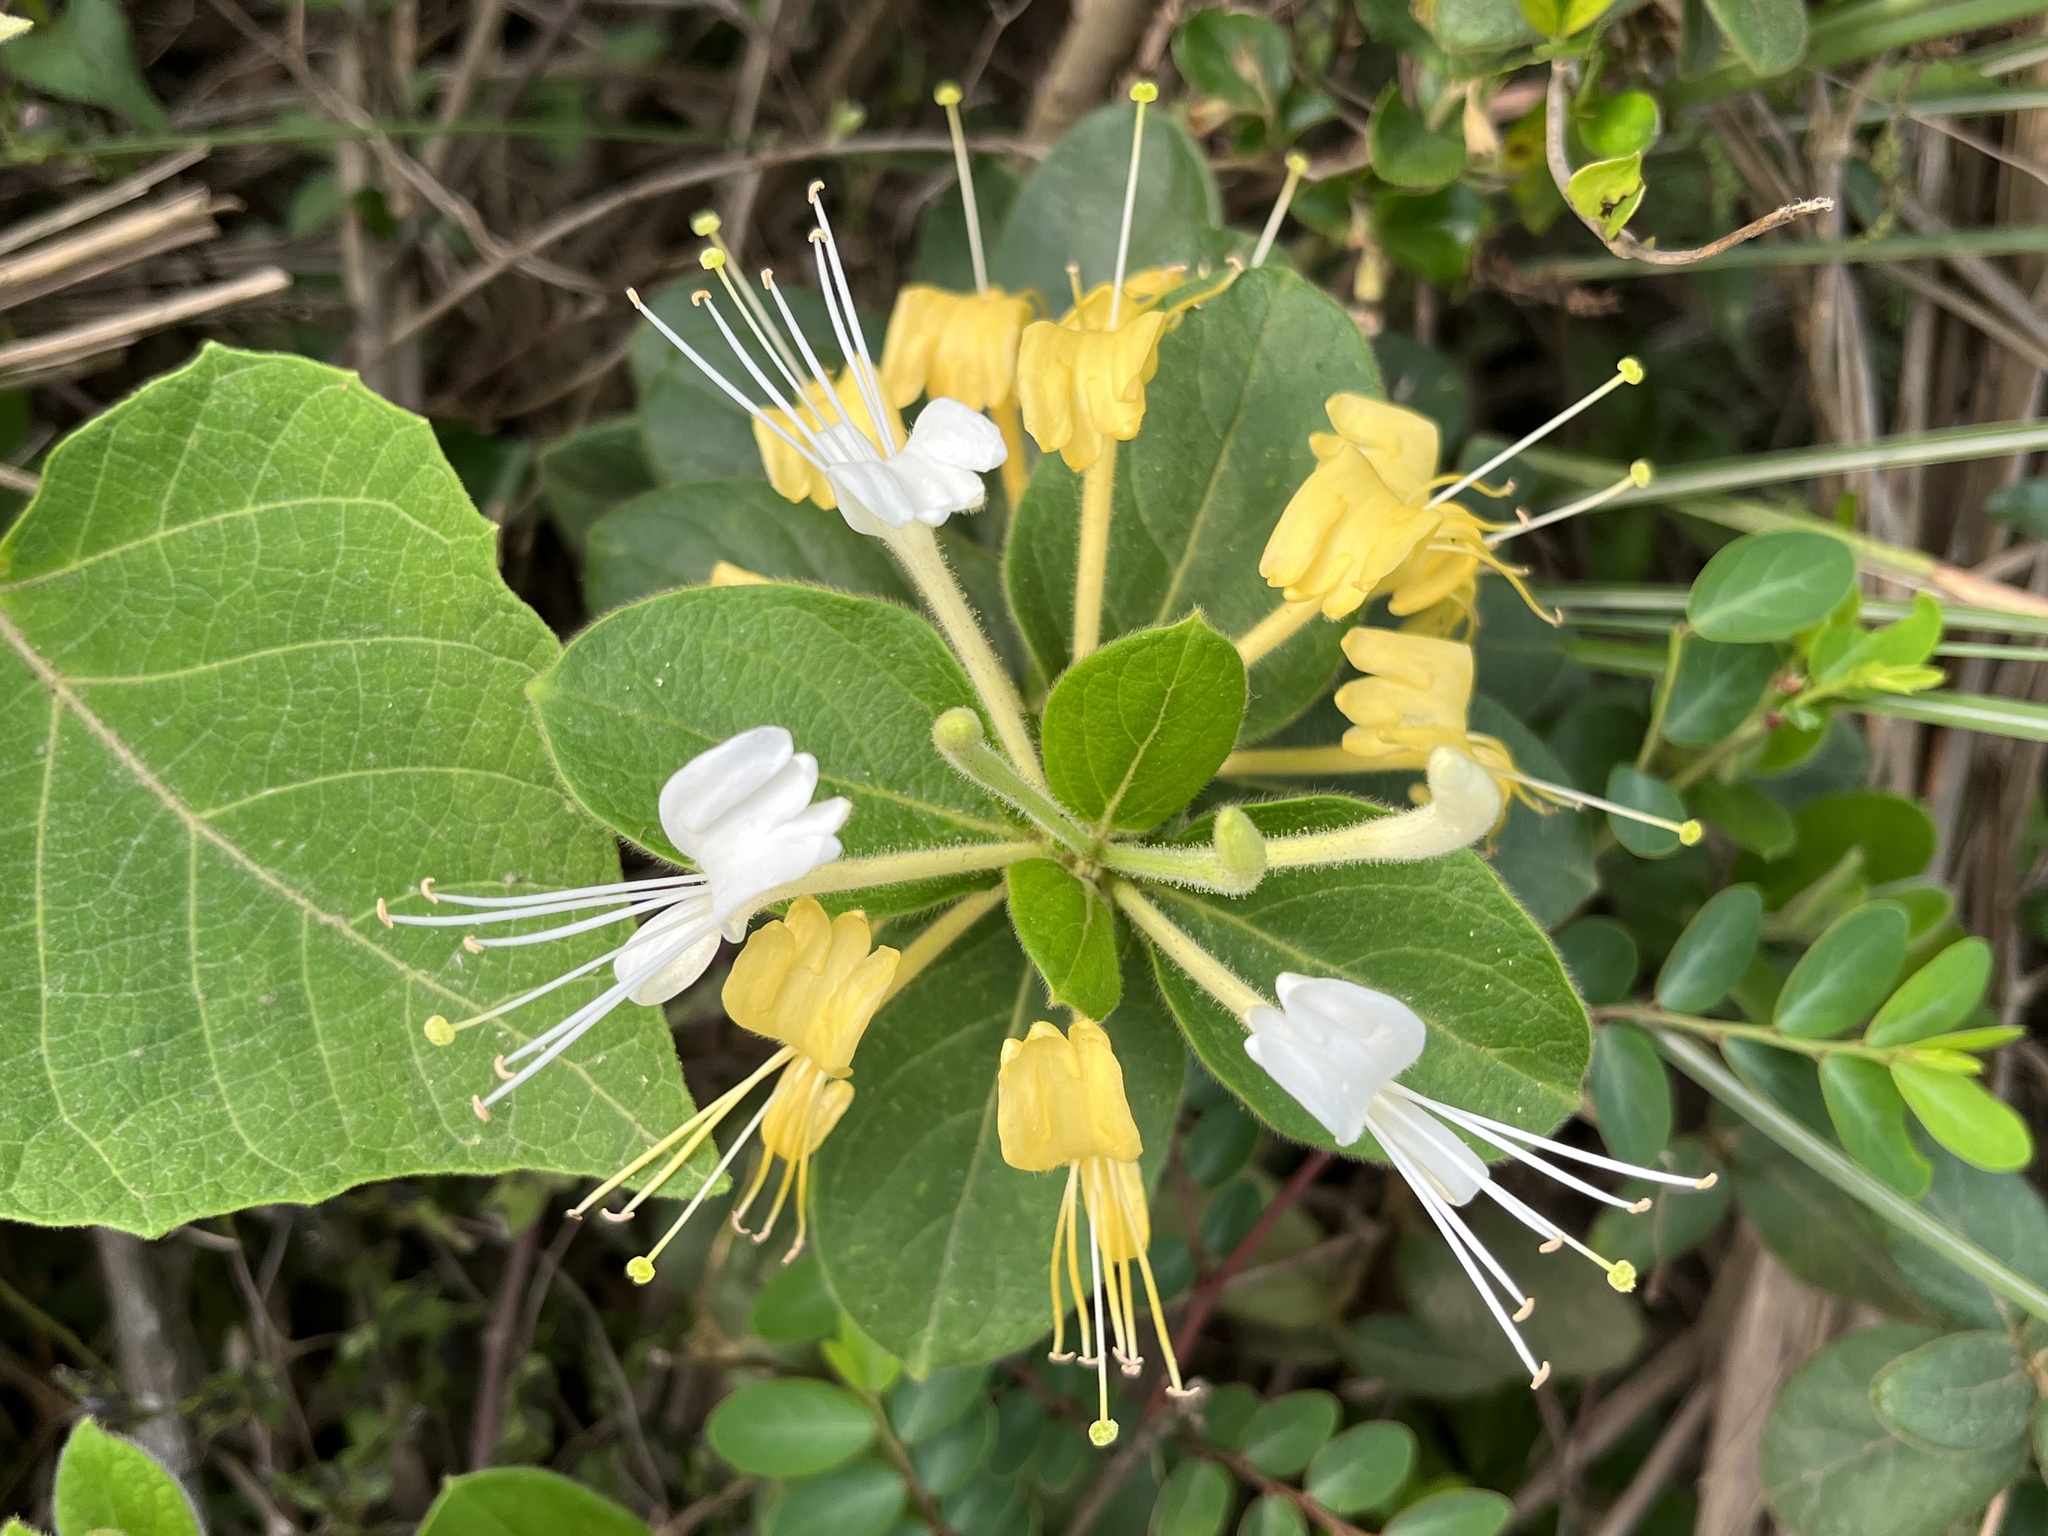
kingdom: Plantae
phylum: Tracheophyta
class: Magnoliopsida
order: Dipsacales
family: Caprifoliaceae
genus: Lonicera
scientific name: Lonicera japonica
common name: Japanese honeysuckle
